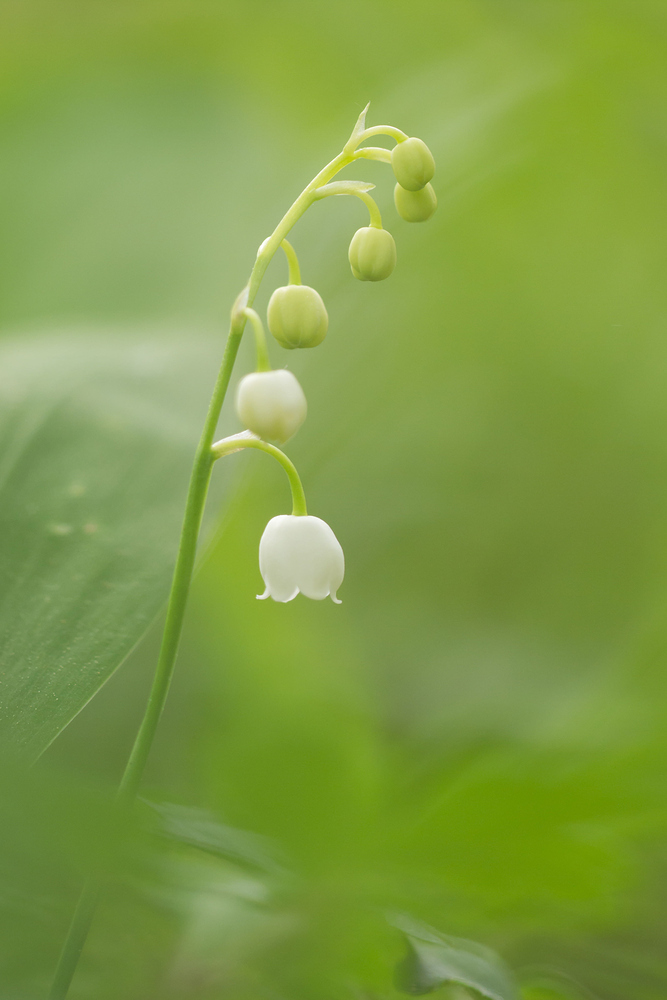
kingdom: Plantae
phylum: Tracheophyta
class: Liliopsida
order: Asparagales
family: Asparagaceae
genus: Convallaria
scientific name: Convallaria majalis
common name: Lily-of-the-valley
